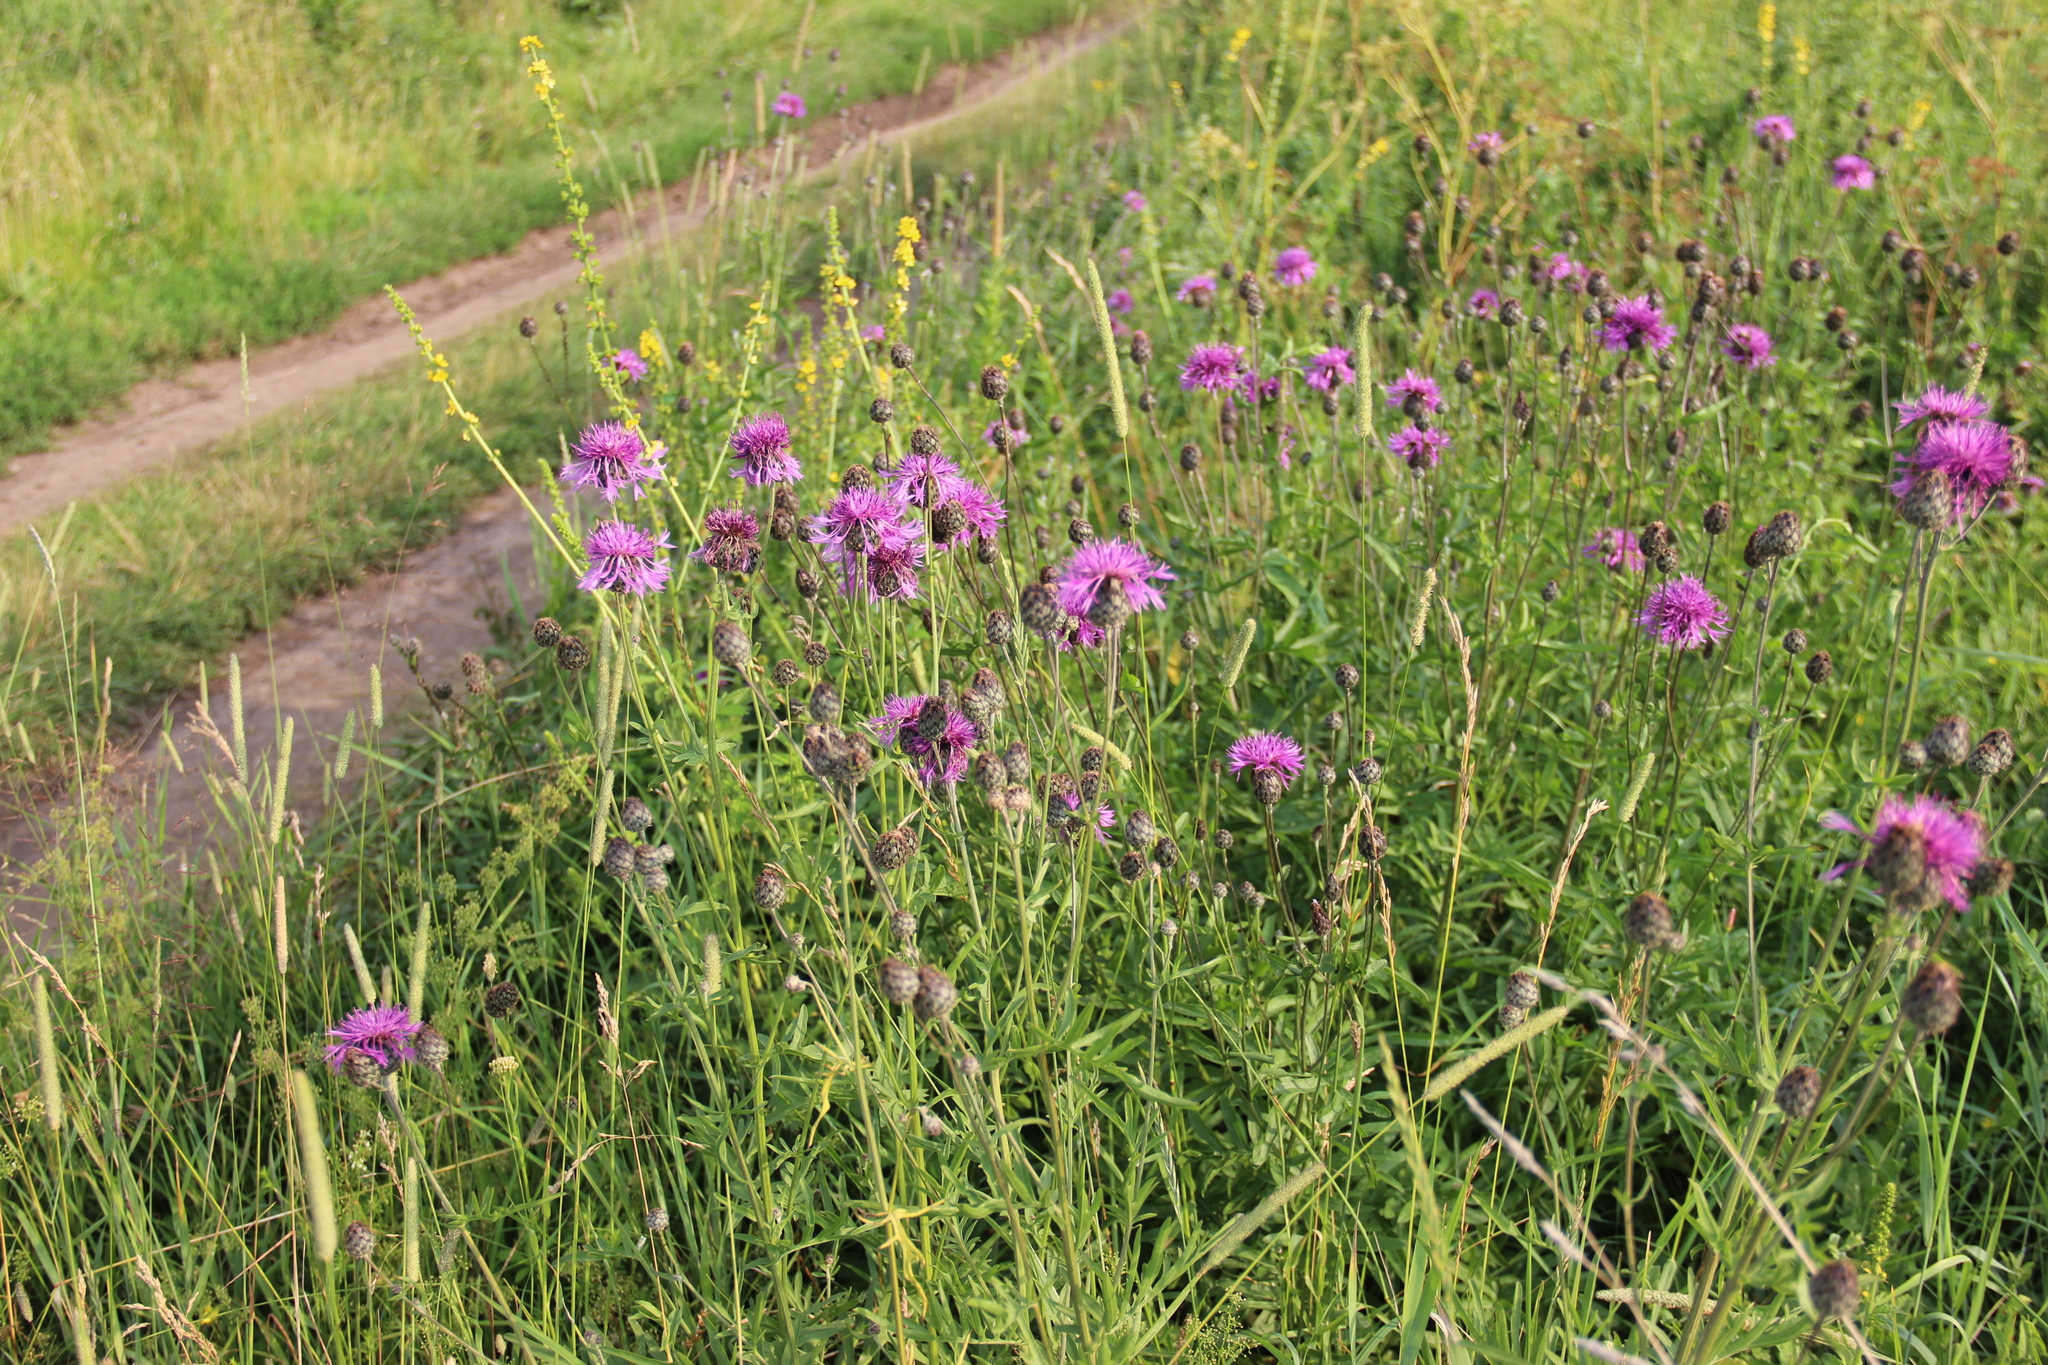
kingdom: Plantae
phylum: Tracheophyta
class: Magnoliopsida
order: Asterales
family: Asteraceae
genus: Centaurea
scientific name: Centaurea scabiosa
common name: Greater knapweed
